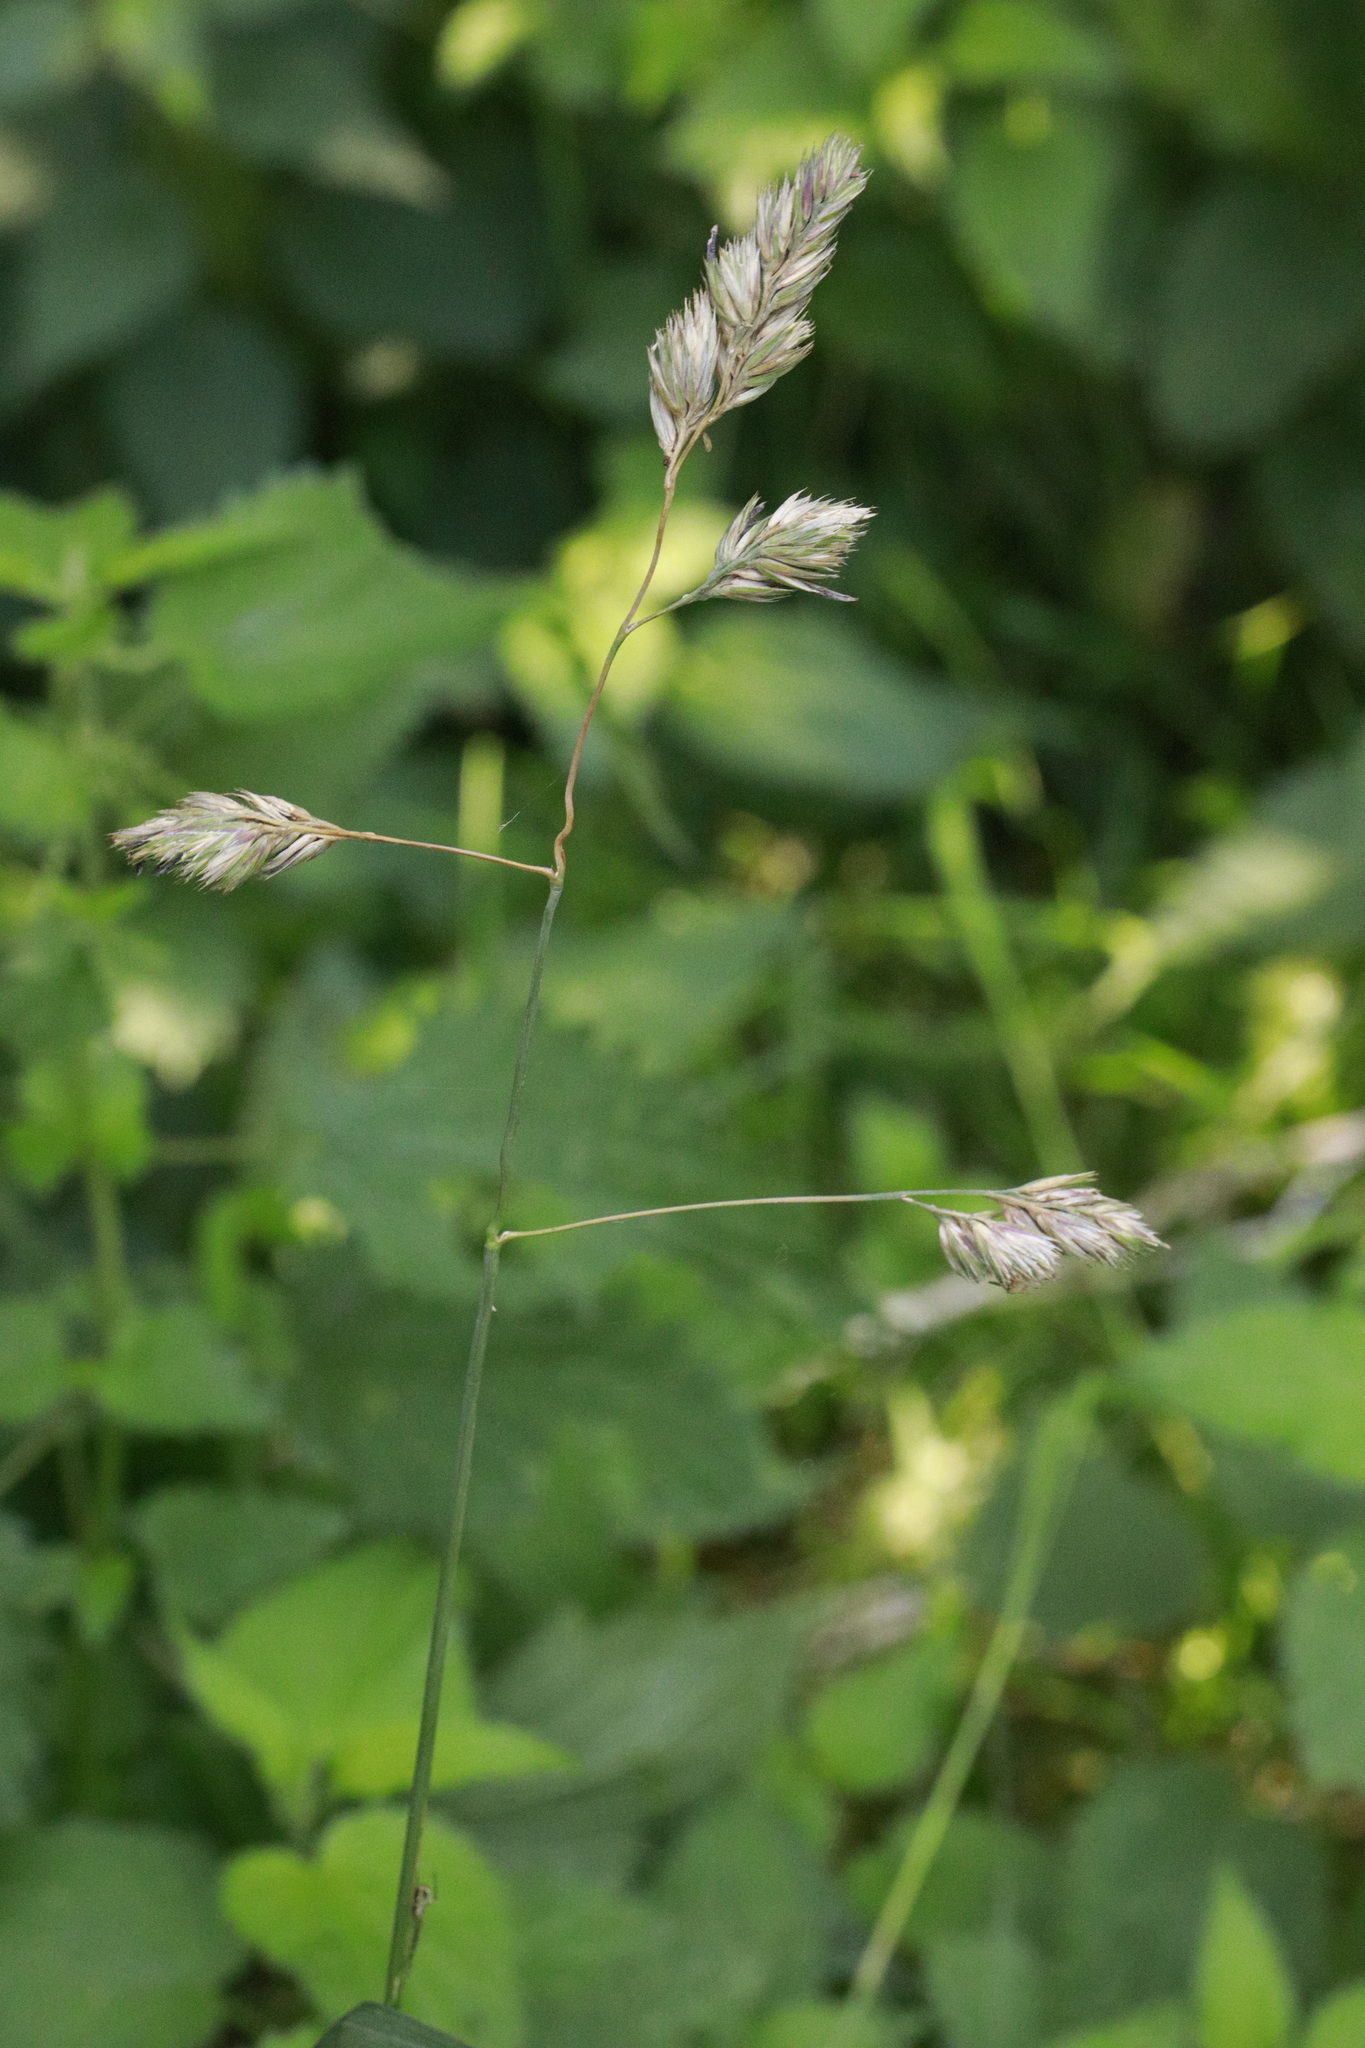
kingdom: Plantae
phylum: Tracheophyta
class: Liliopsida
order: Poales
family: Poaceae
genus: Dactylis
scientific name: Dactylis glomerata
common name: Orchardgrass
